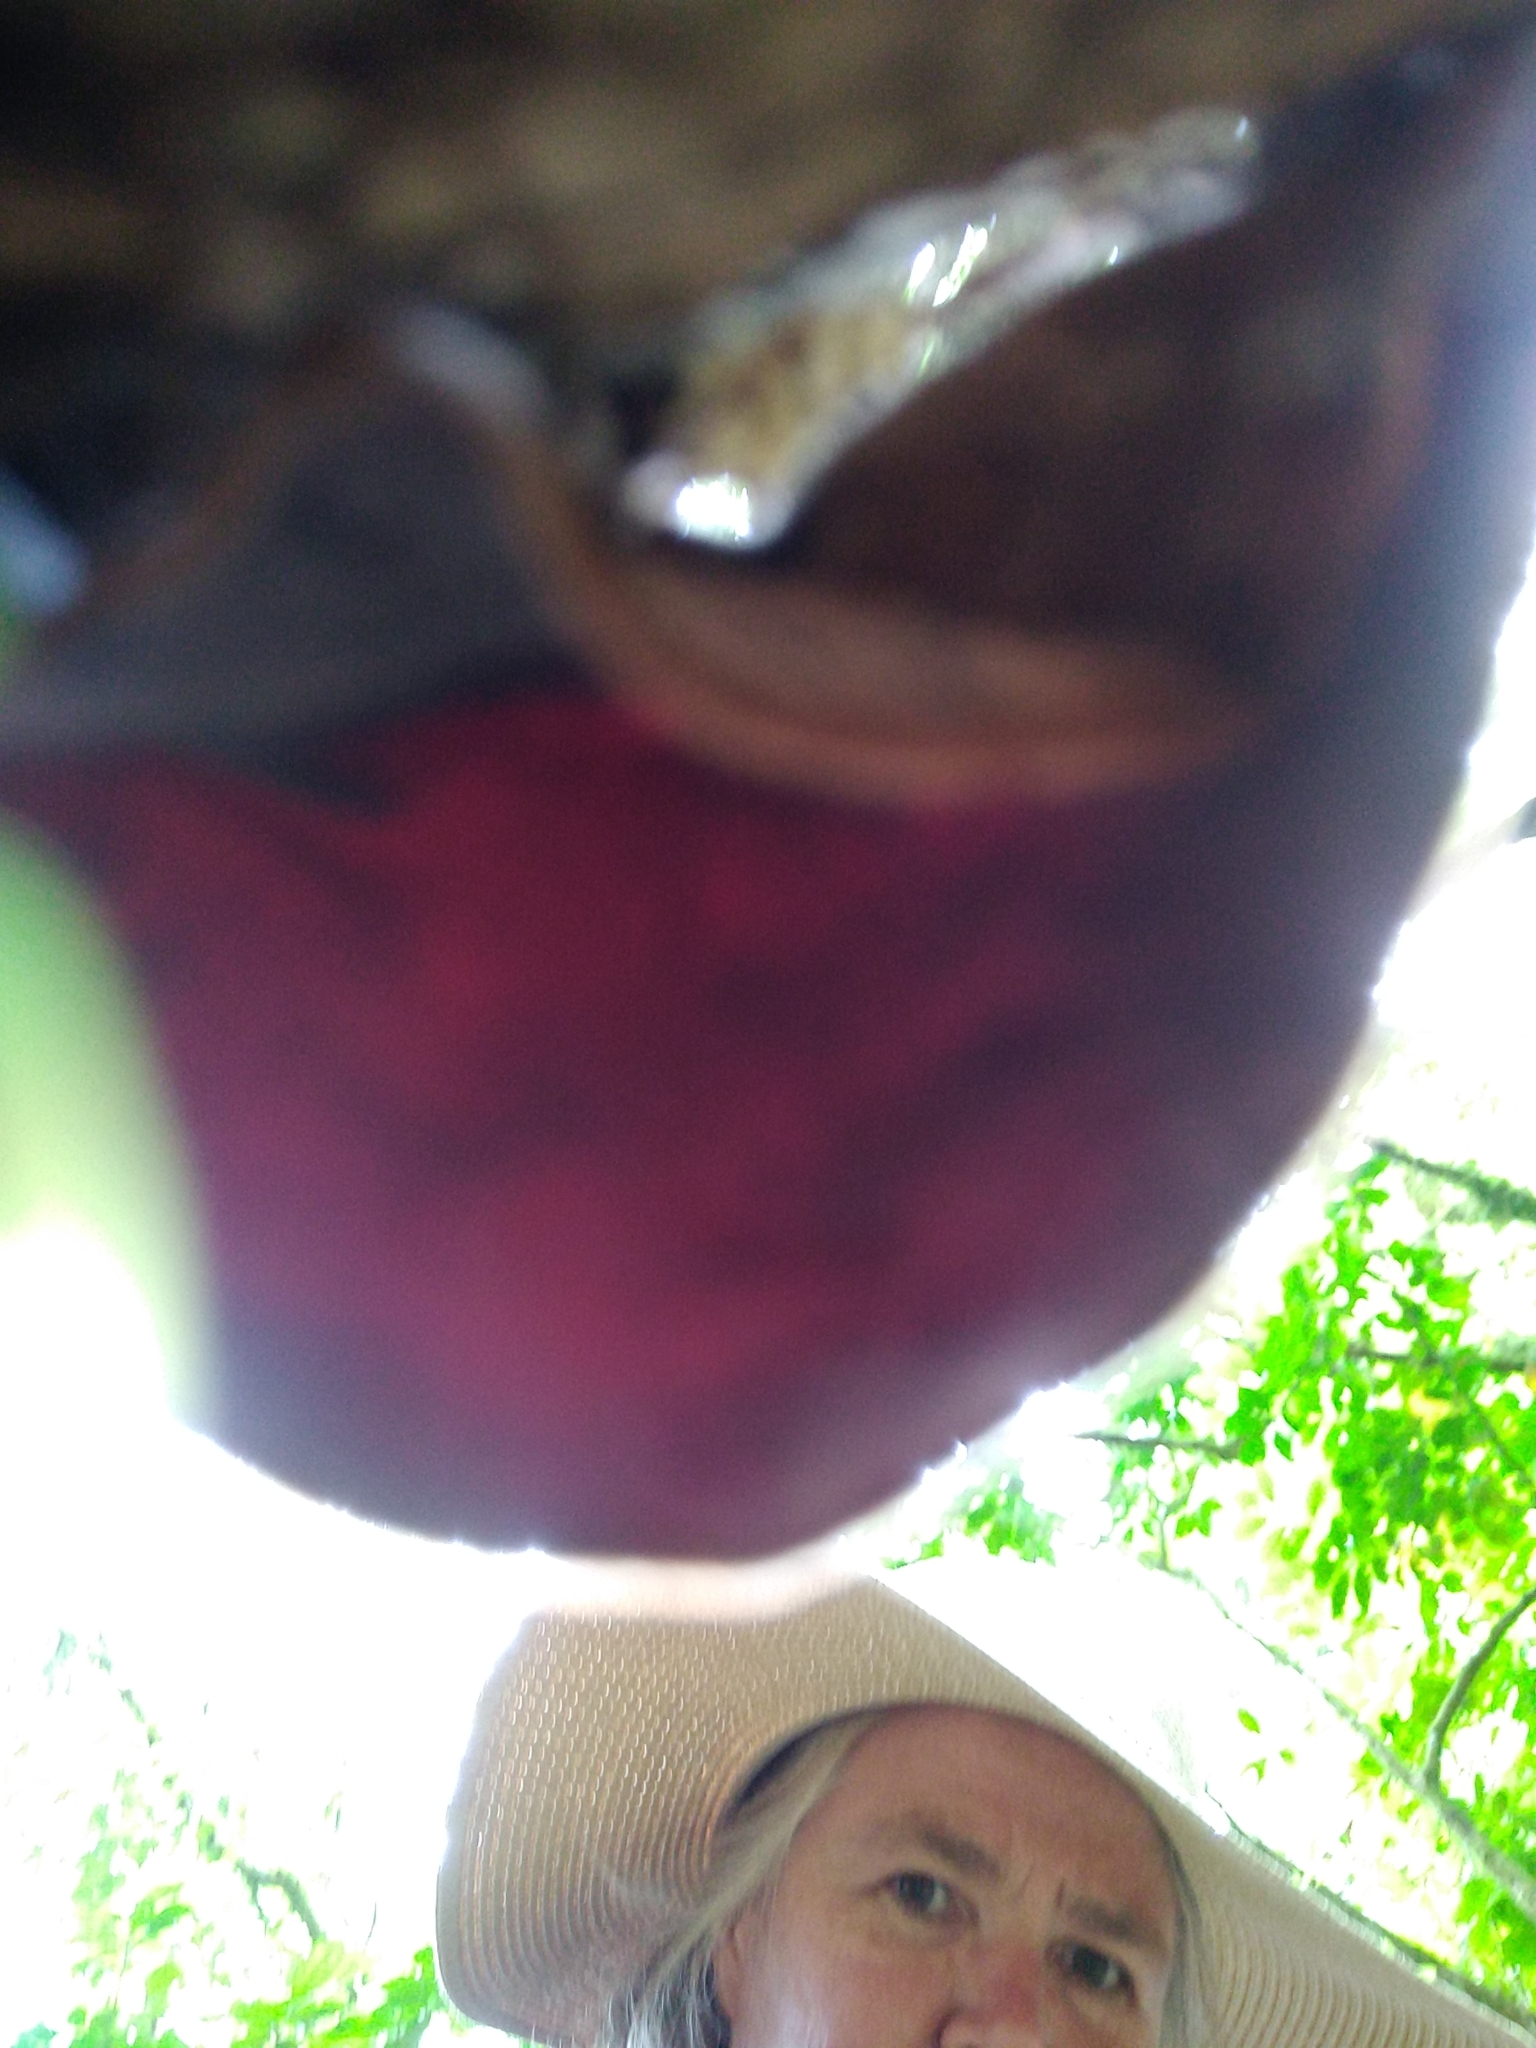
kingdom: Fungi
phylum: Basidiomycota
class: Agaricomycetes
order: Auriculariales
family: Auriculariaceae
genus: Auricularia
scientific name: Auricularia cornea
